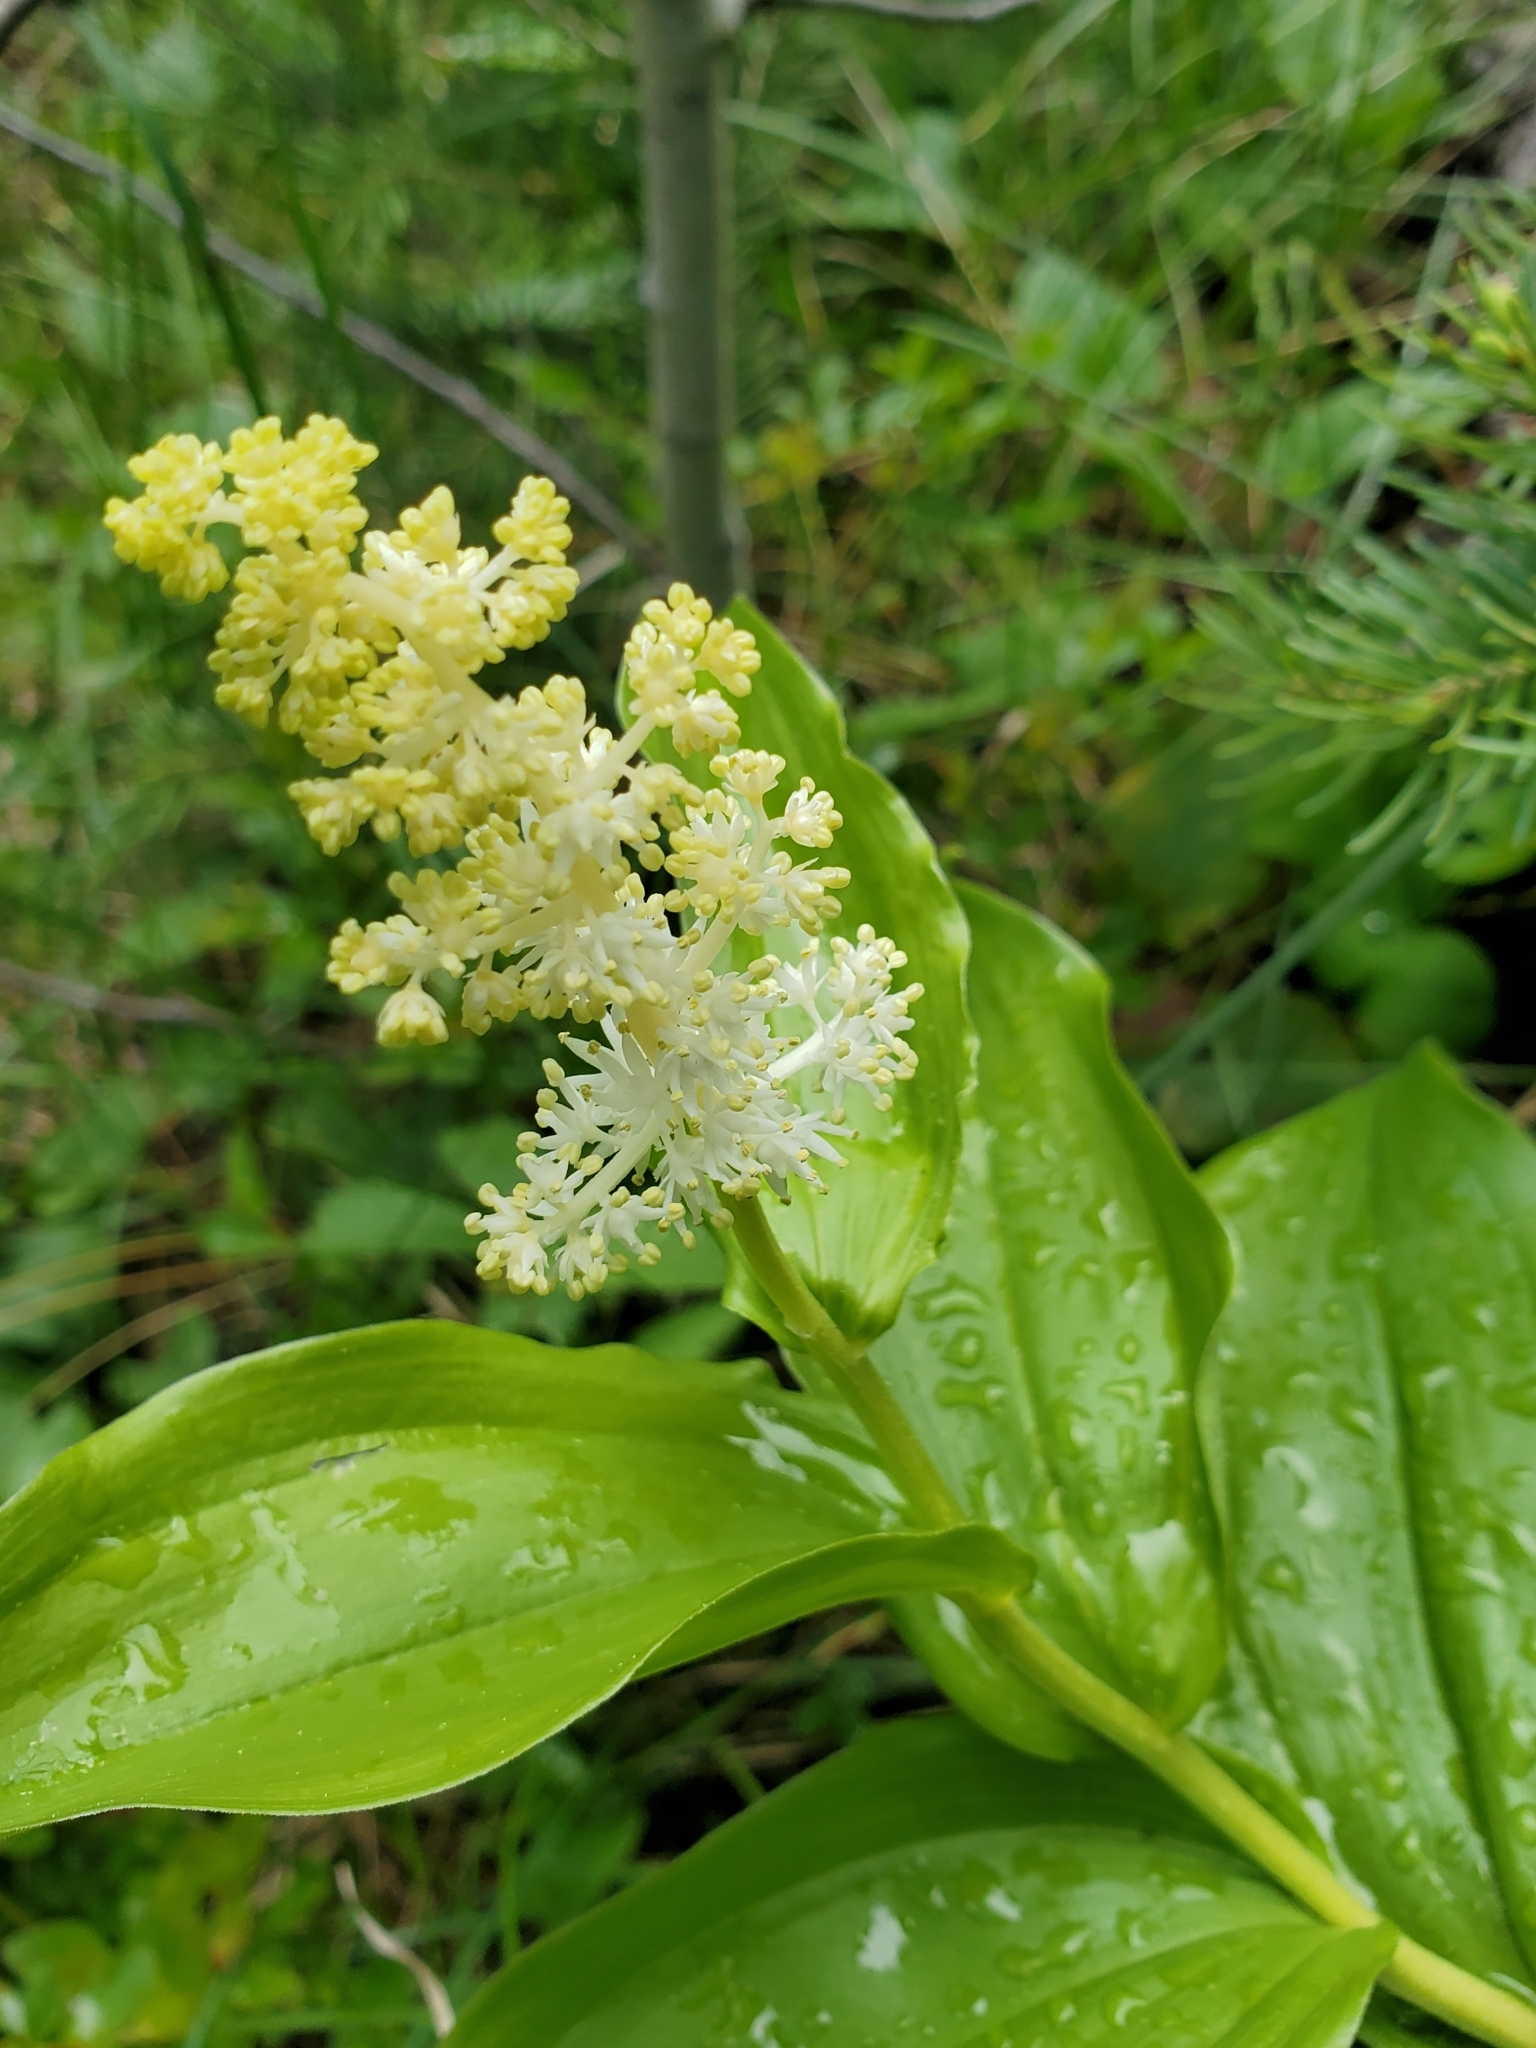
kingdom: Plantae
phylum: Tracheophyta
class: Liliopsida
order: Asparagales
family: Asparagaceae
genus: Maianthemum
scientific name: Maianthemum racemosum
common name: False spikenard
